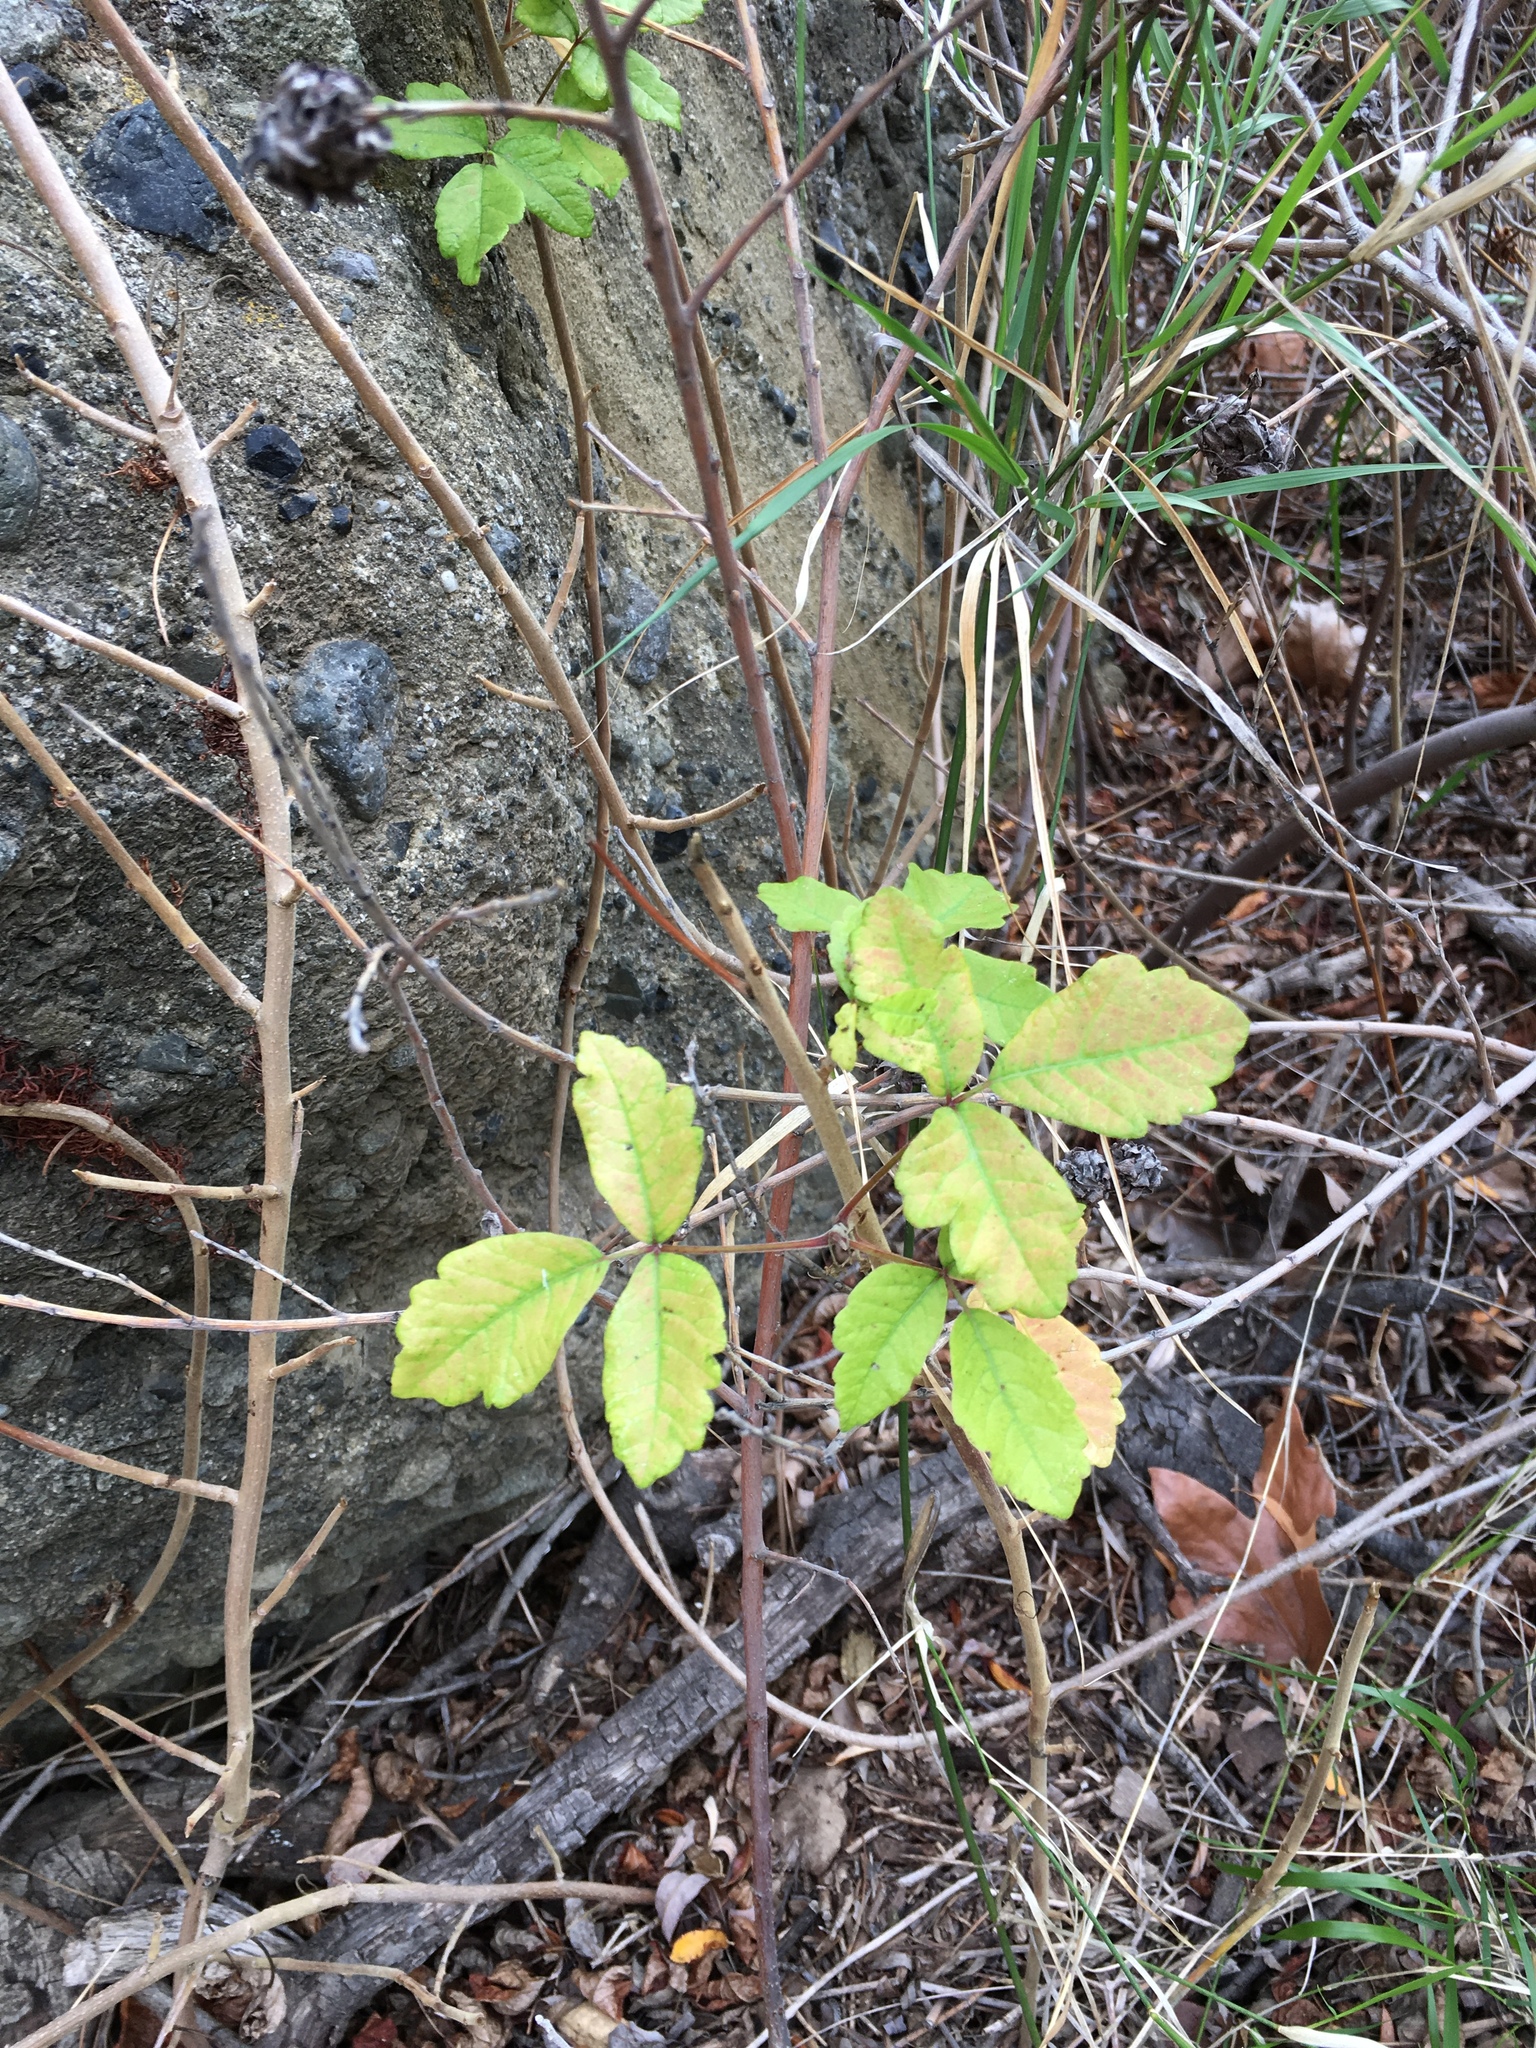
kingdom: Plantae
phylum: Tracheophyta
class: Magnoliopsida
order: Sapindales
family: Anacardiaceae
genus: Toxicodendron
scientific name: Toxicodendron diversilobum
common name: Pacific poison-oak
